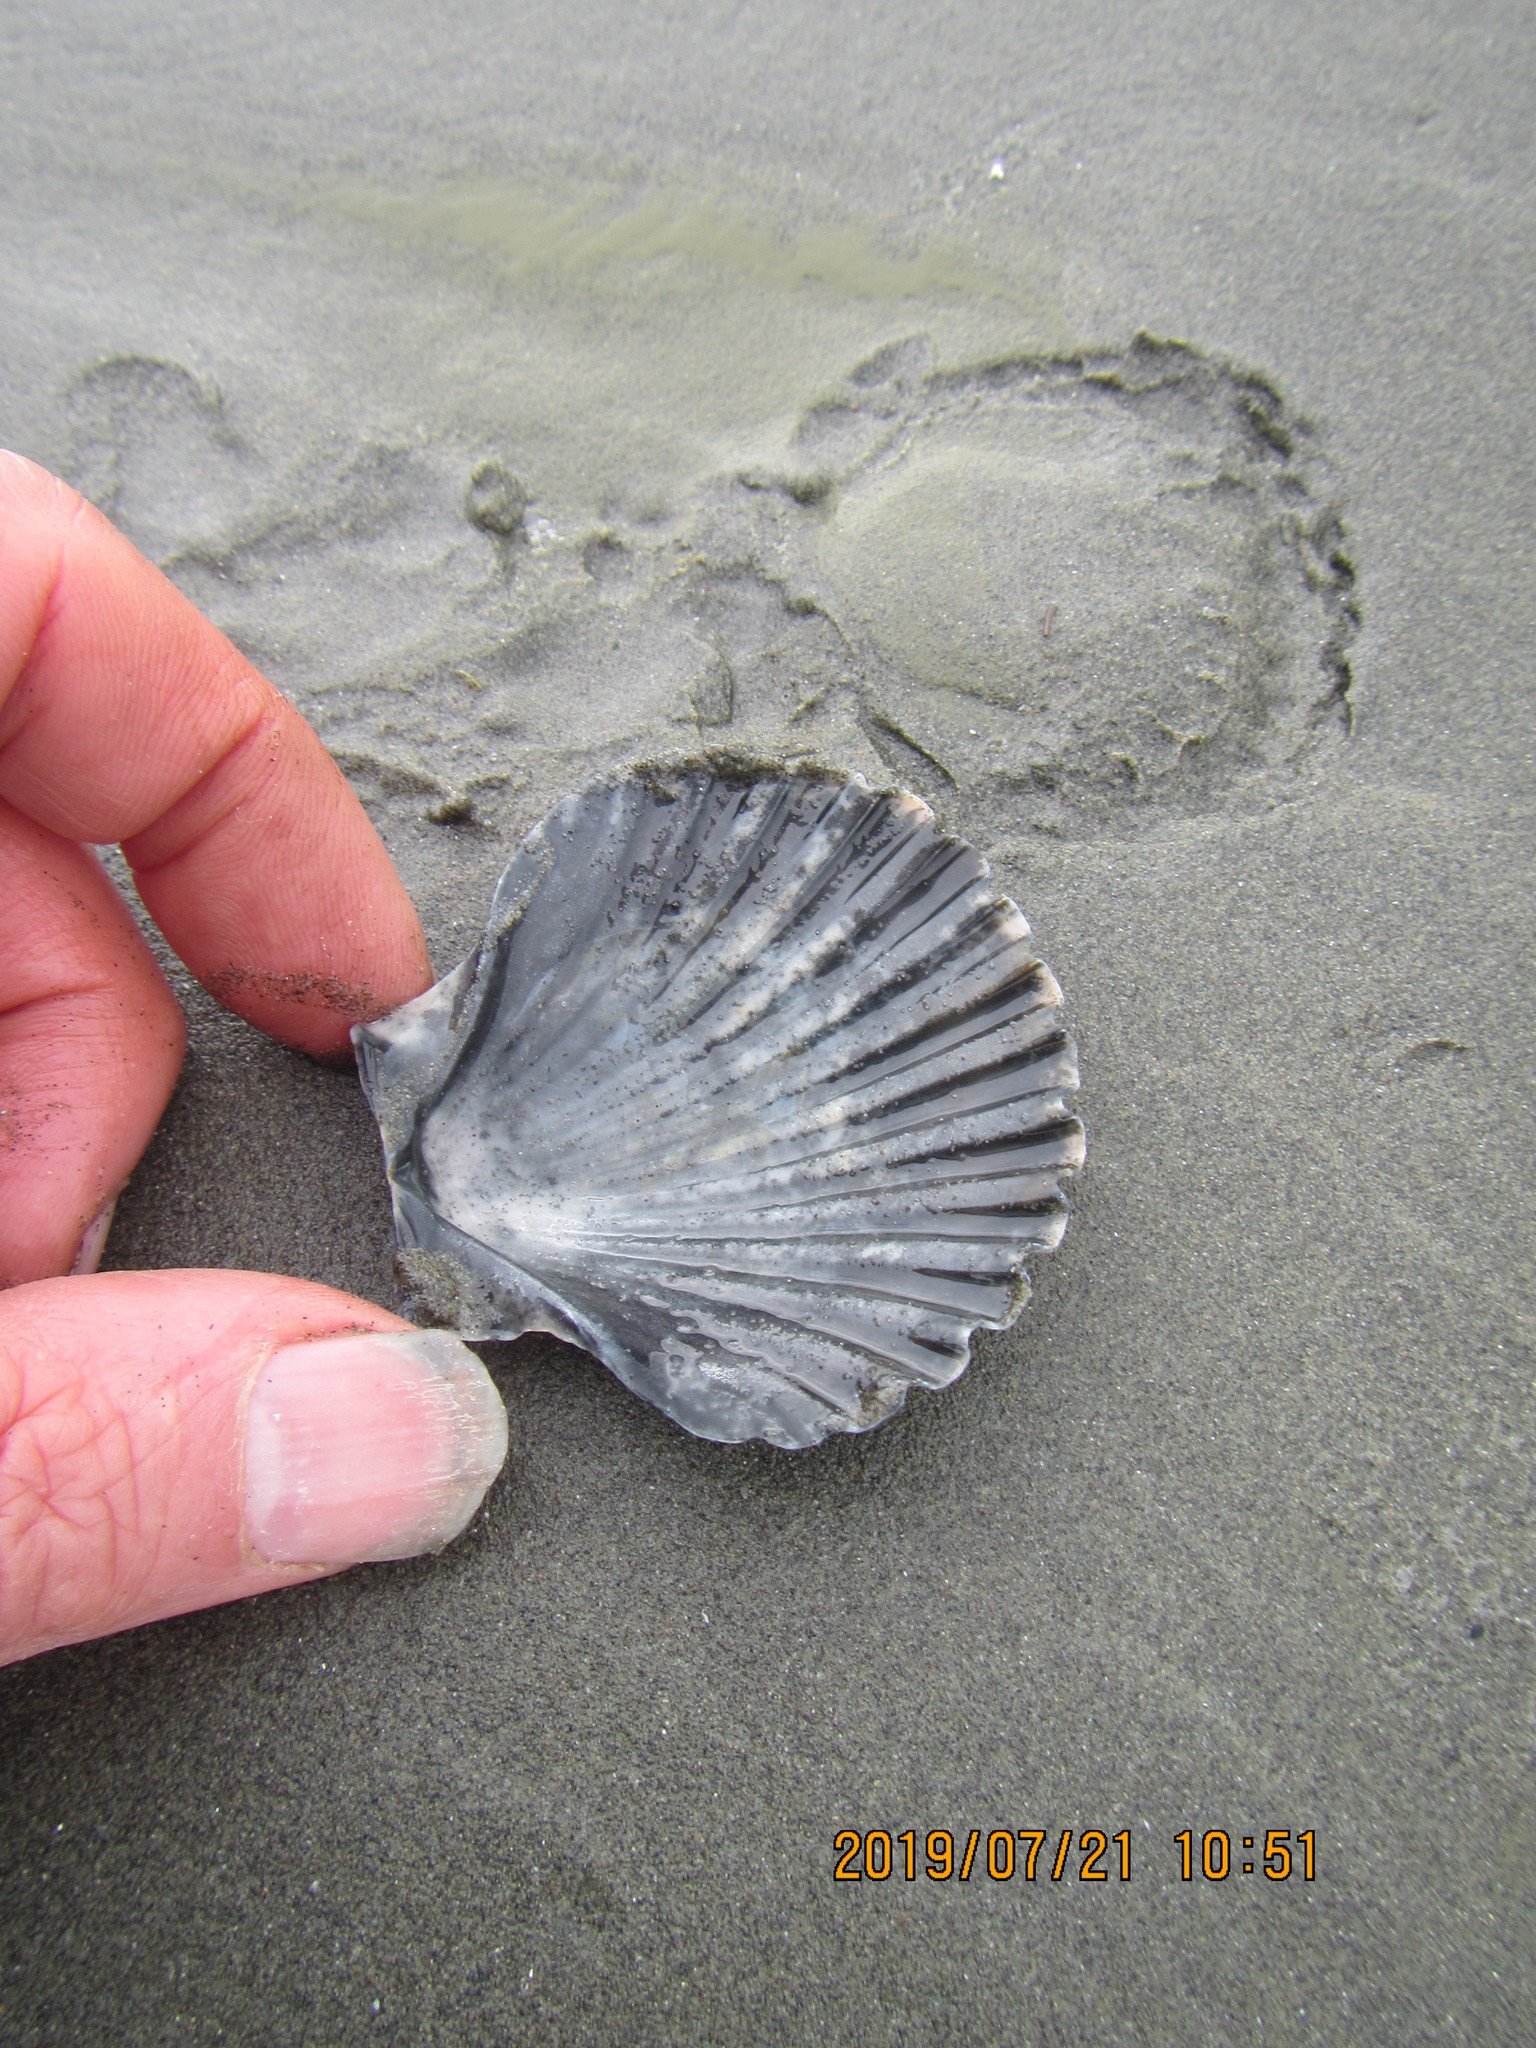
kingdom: Animalia
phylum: Mollusca
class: Bivalvia
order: Pectinida
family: Pectinidae
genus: Pecten
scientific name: Pecten novaezelandiae
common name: New zealand scallop
